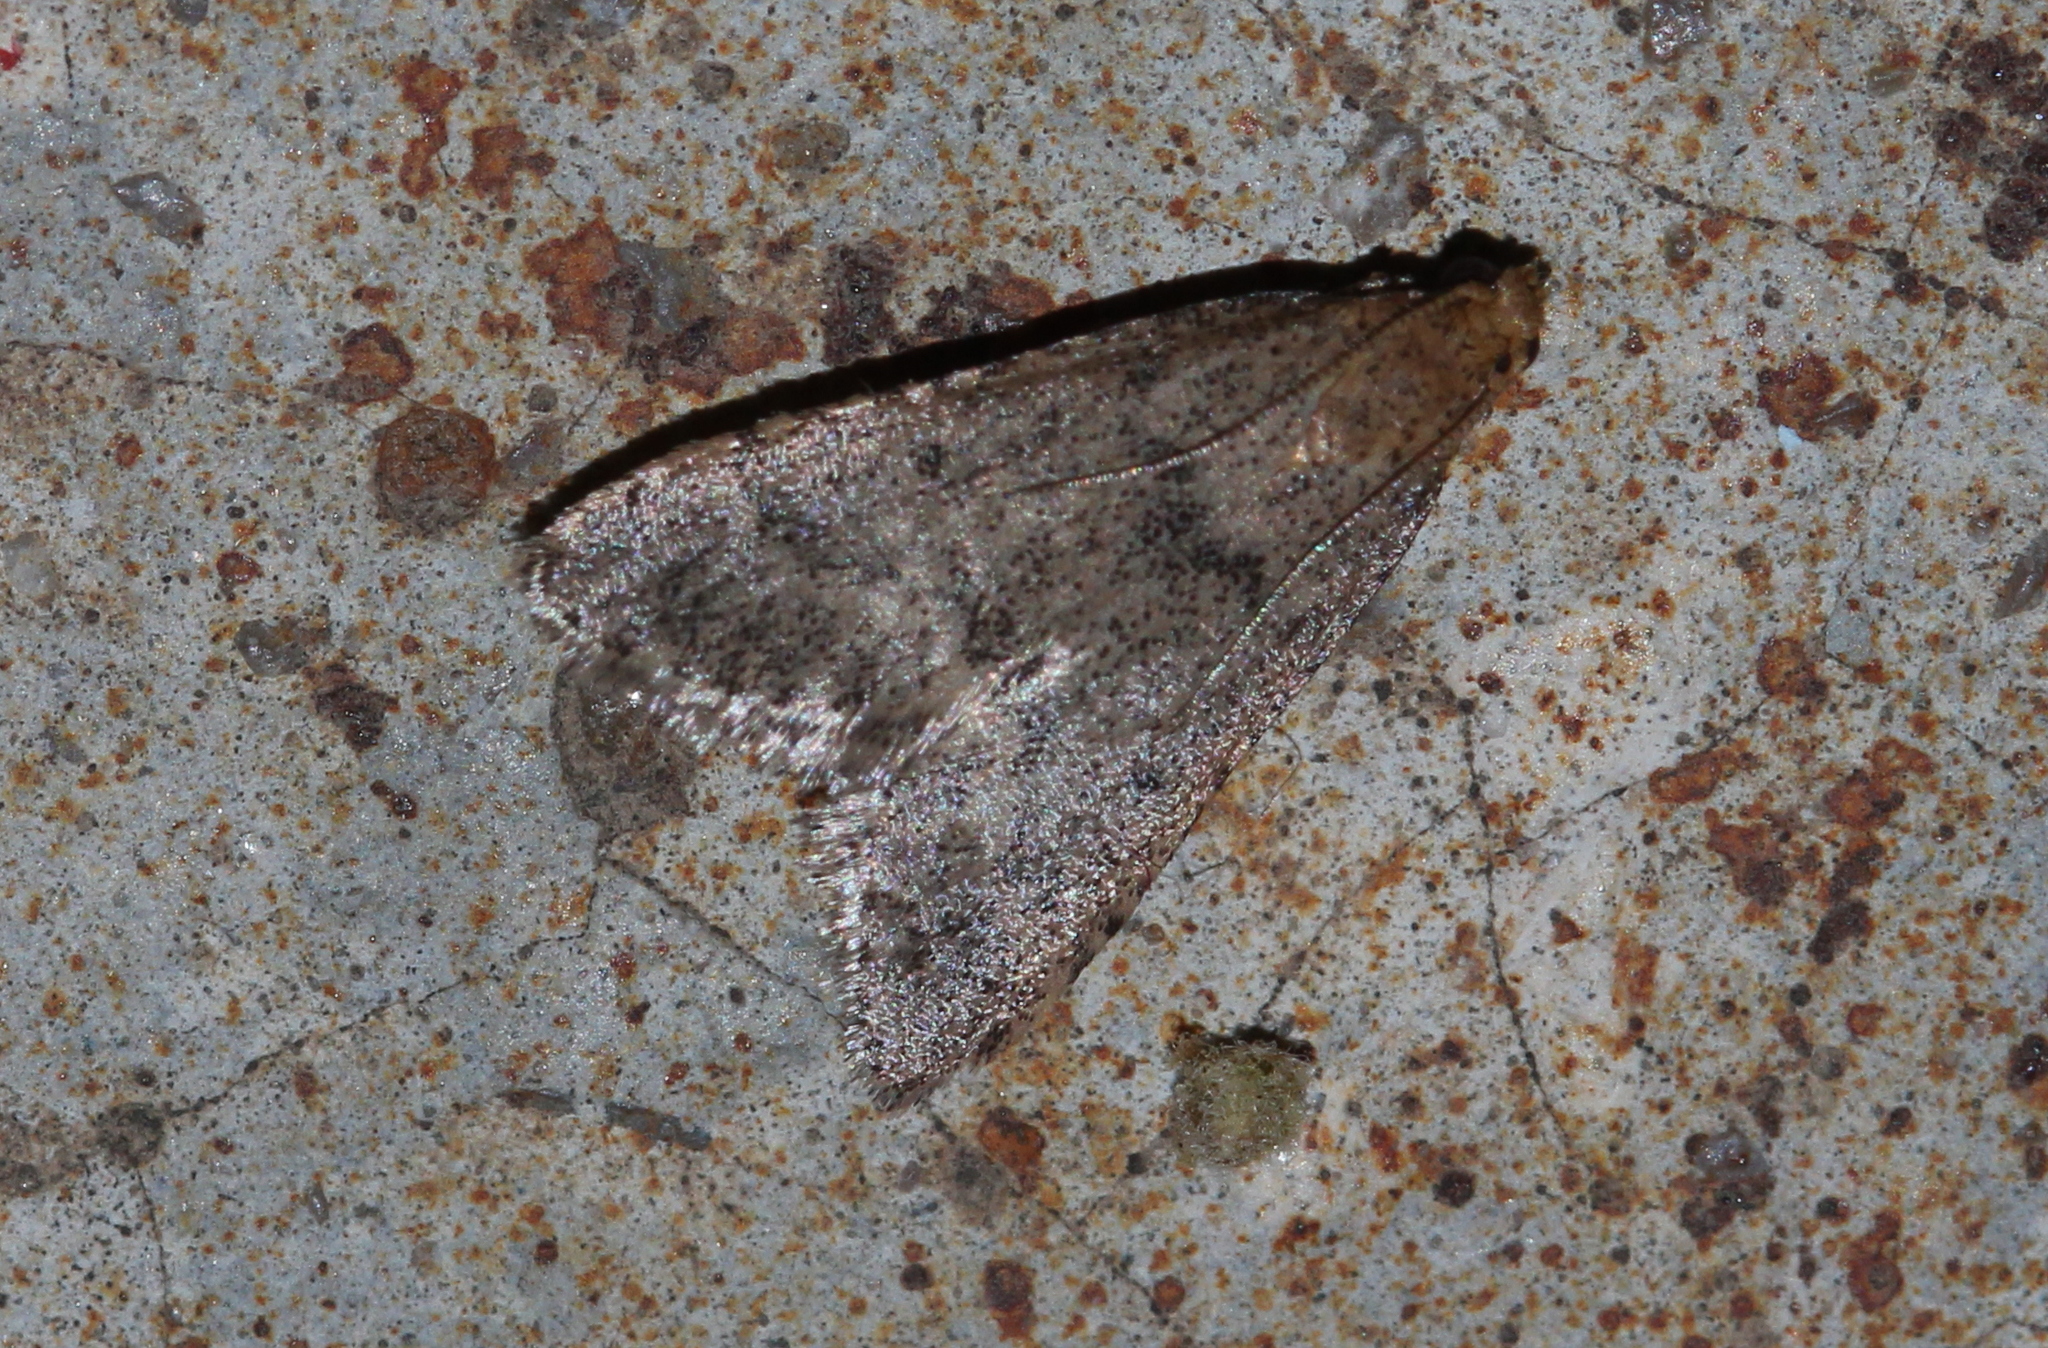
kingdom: Animalia
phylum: Arthropoda
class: Insecta
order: Lepidoptera
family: Pyralidae
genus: Bostra
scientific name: Bostra obsoletalis
